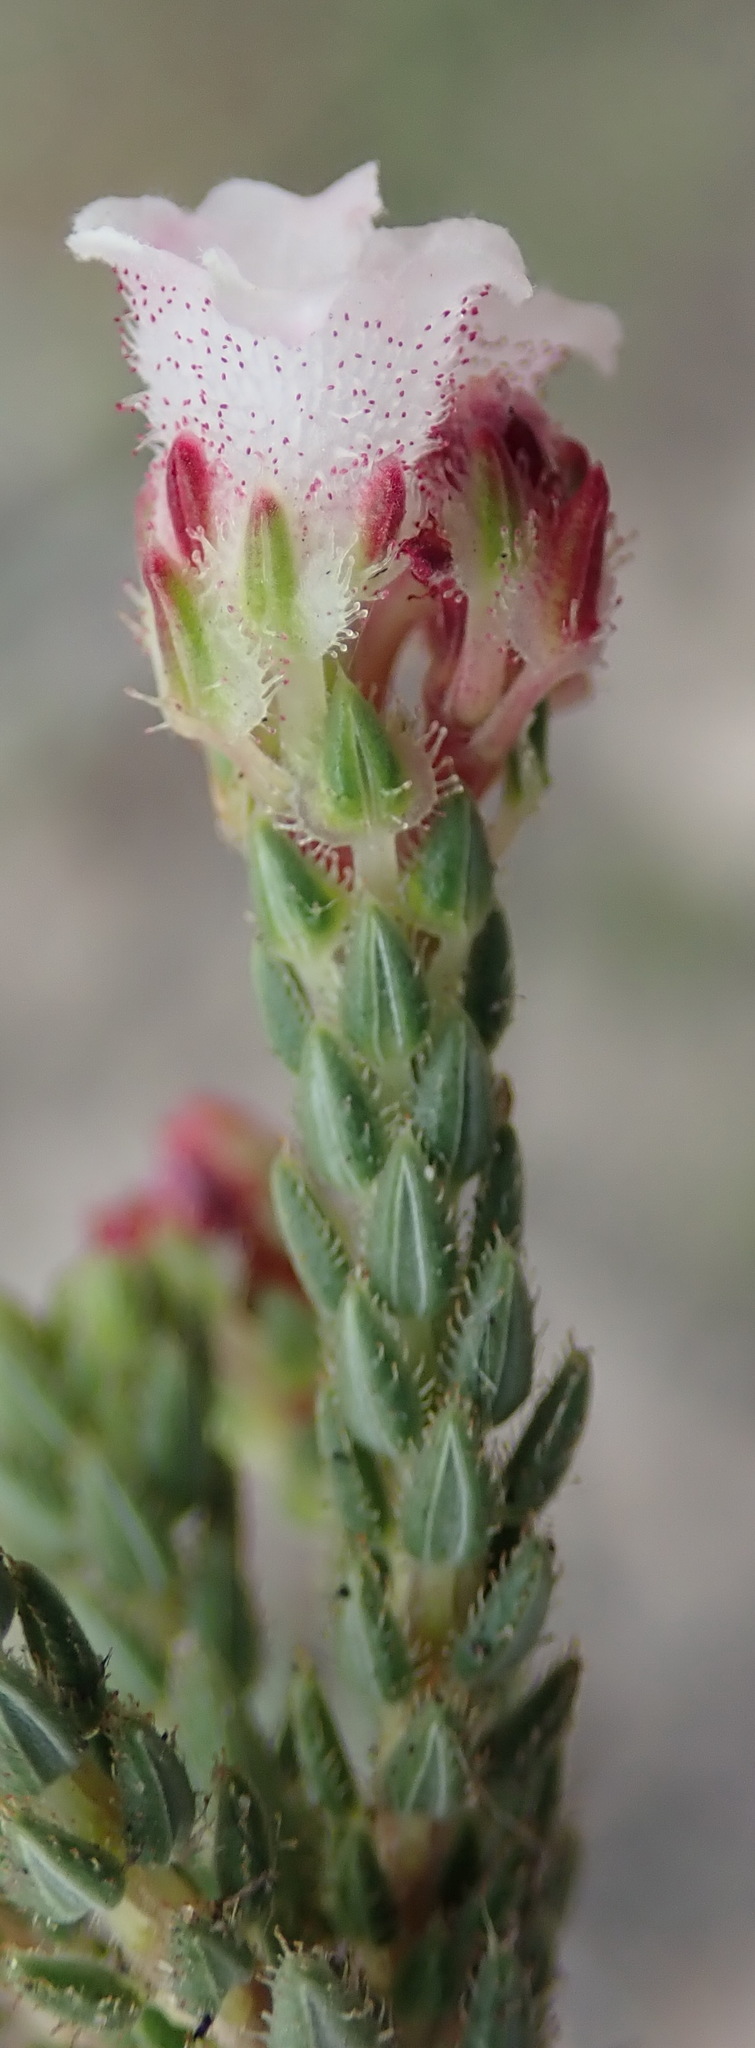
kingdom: Plantae
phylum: Tracheophyta
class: Magnoliopsida
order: Ericales
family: Ericaceae
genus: Erica
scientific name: Erica pectinifolia
